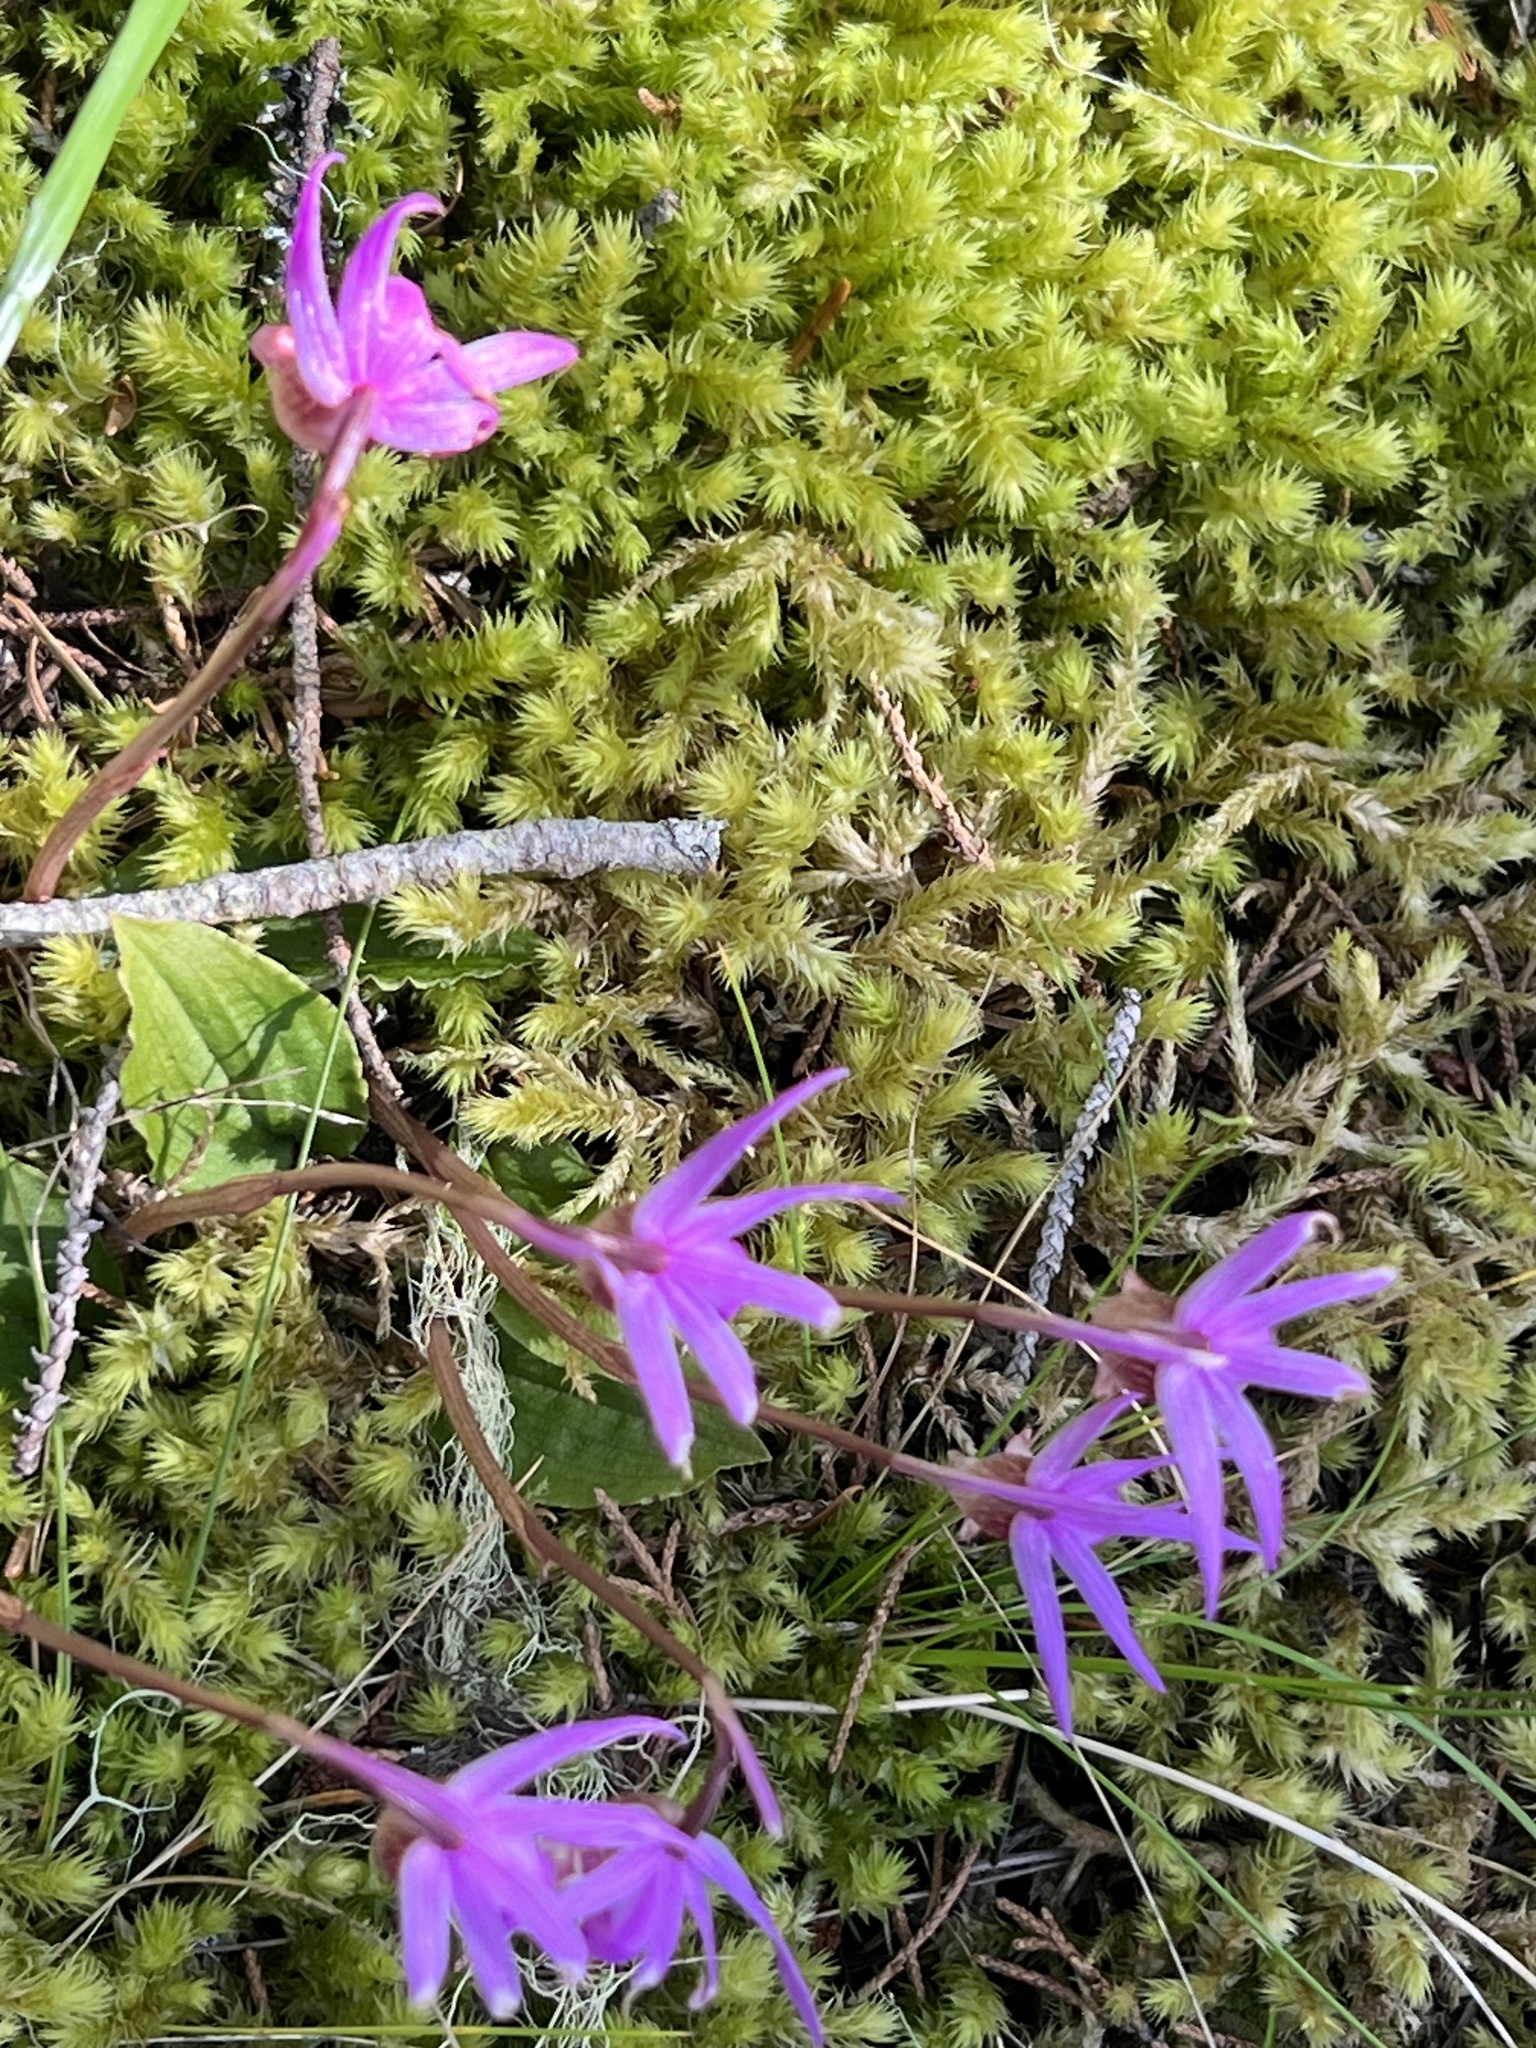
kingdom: Plantae
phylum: Tracheophyta
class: Liliopsida
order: Asparagales
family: Orchidaceae
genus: Calypso
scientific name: Calypso bulbosa
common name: Calypso
